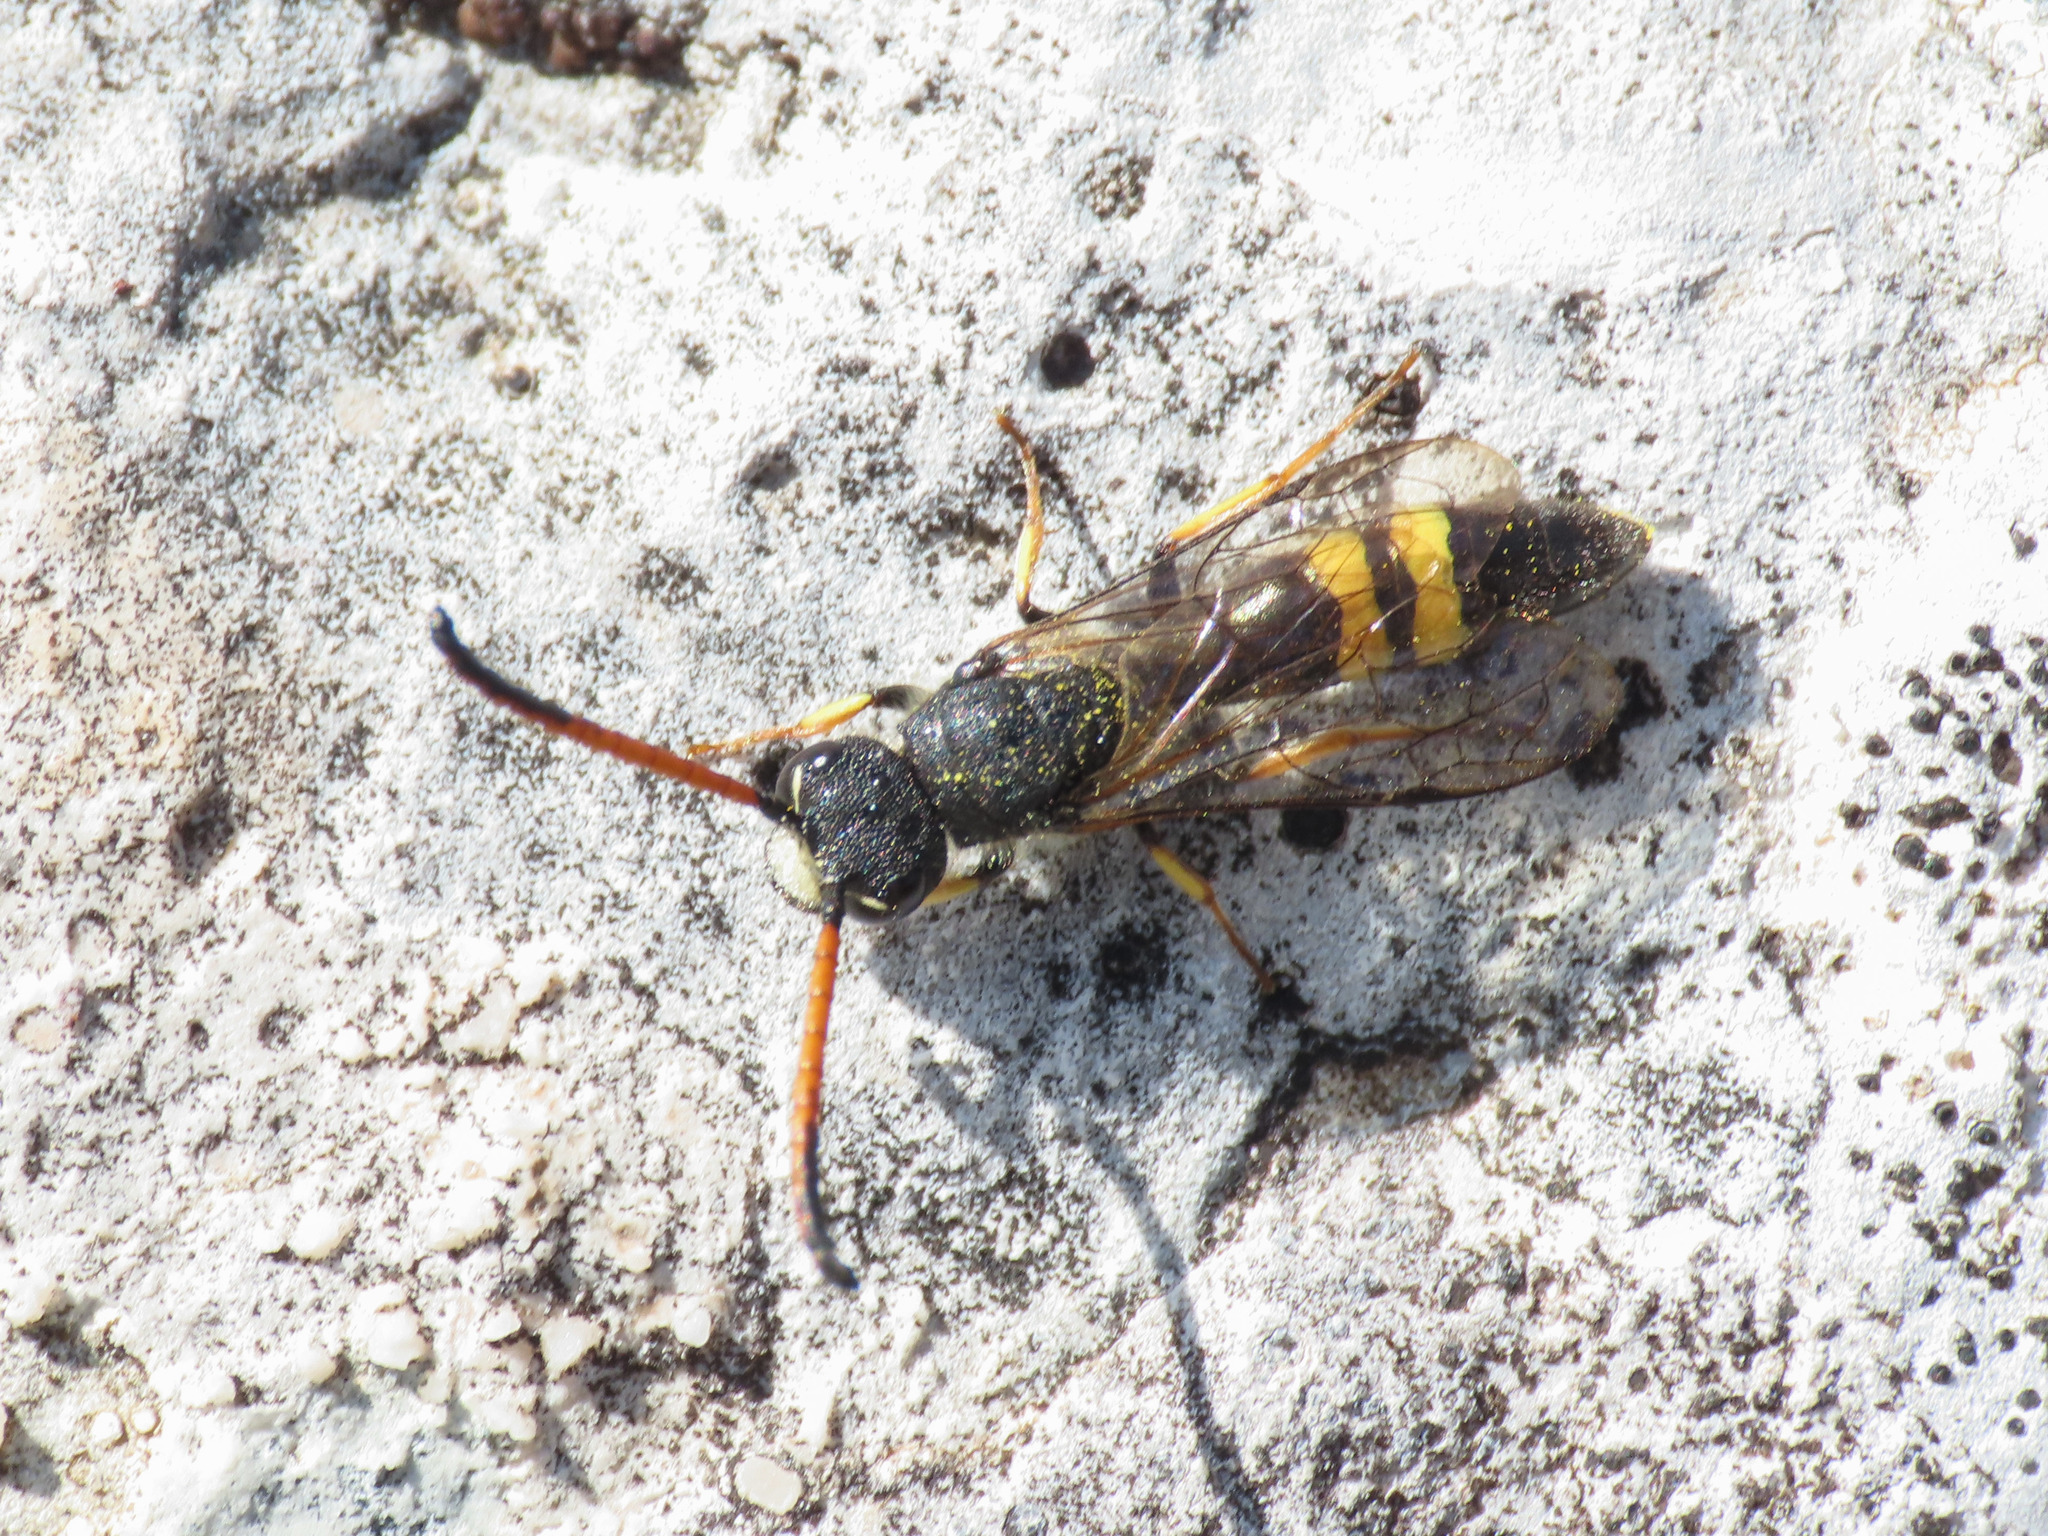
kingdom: Animalia
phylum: Arthropoda
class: Insecta
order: Hymenoptera
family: Sapygidae
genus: Sapyga
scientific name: Sapyga similis
